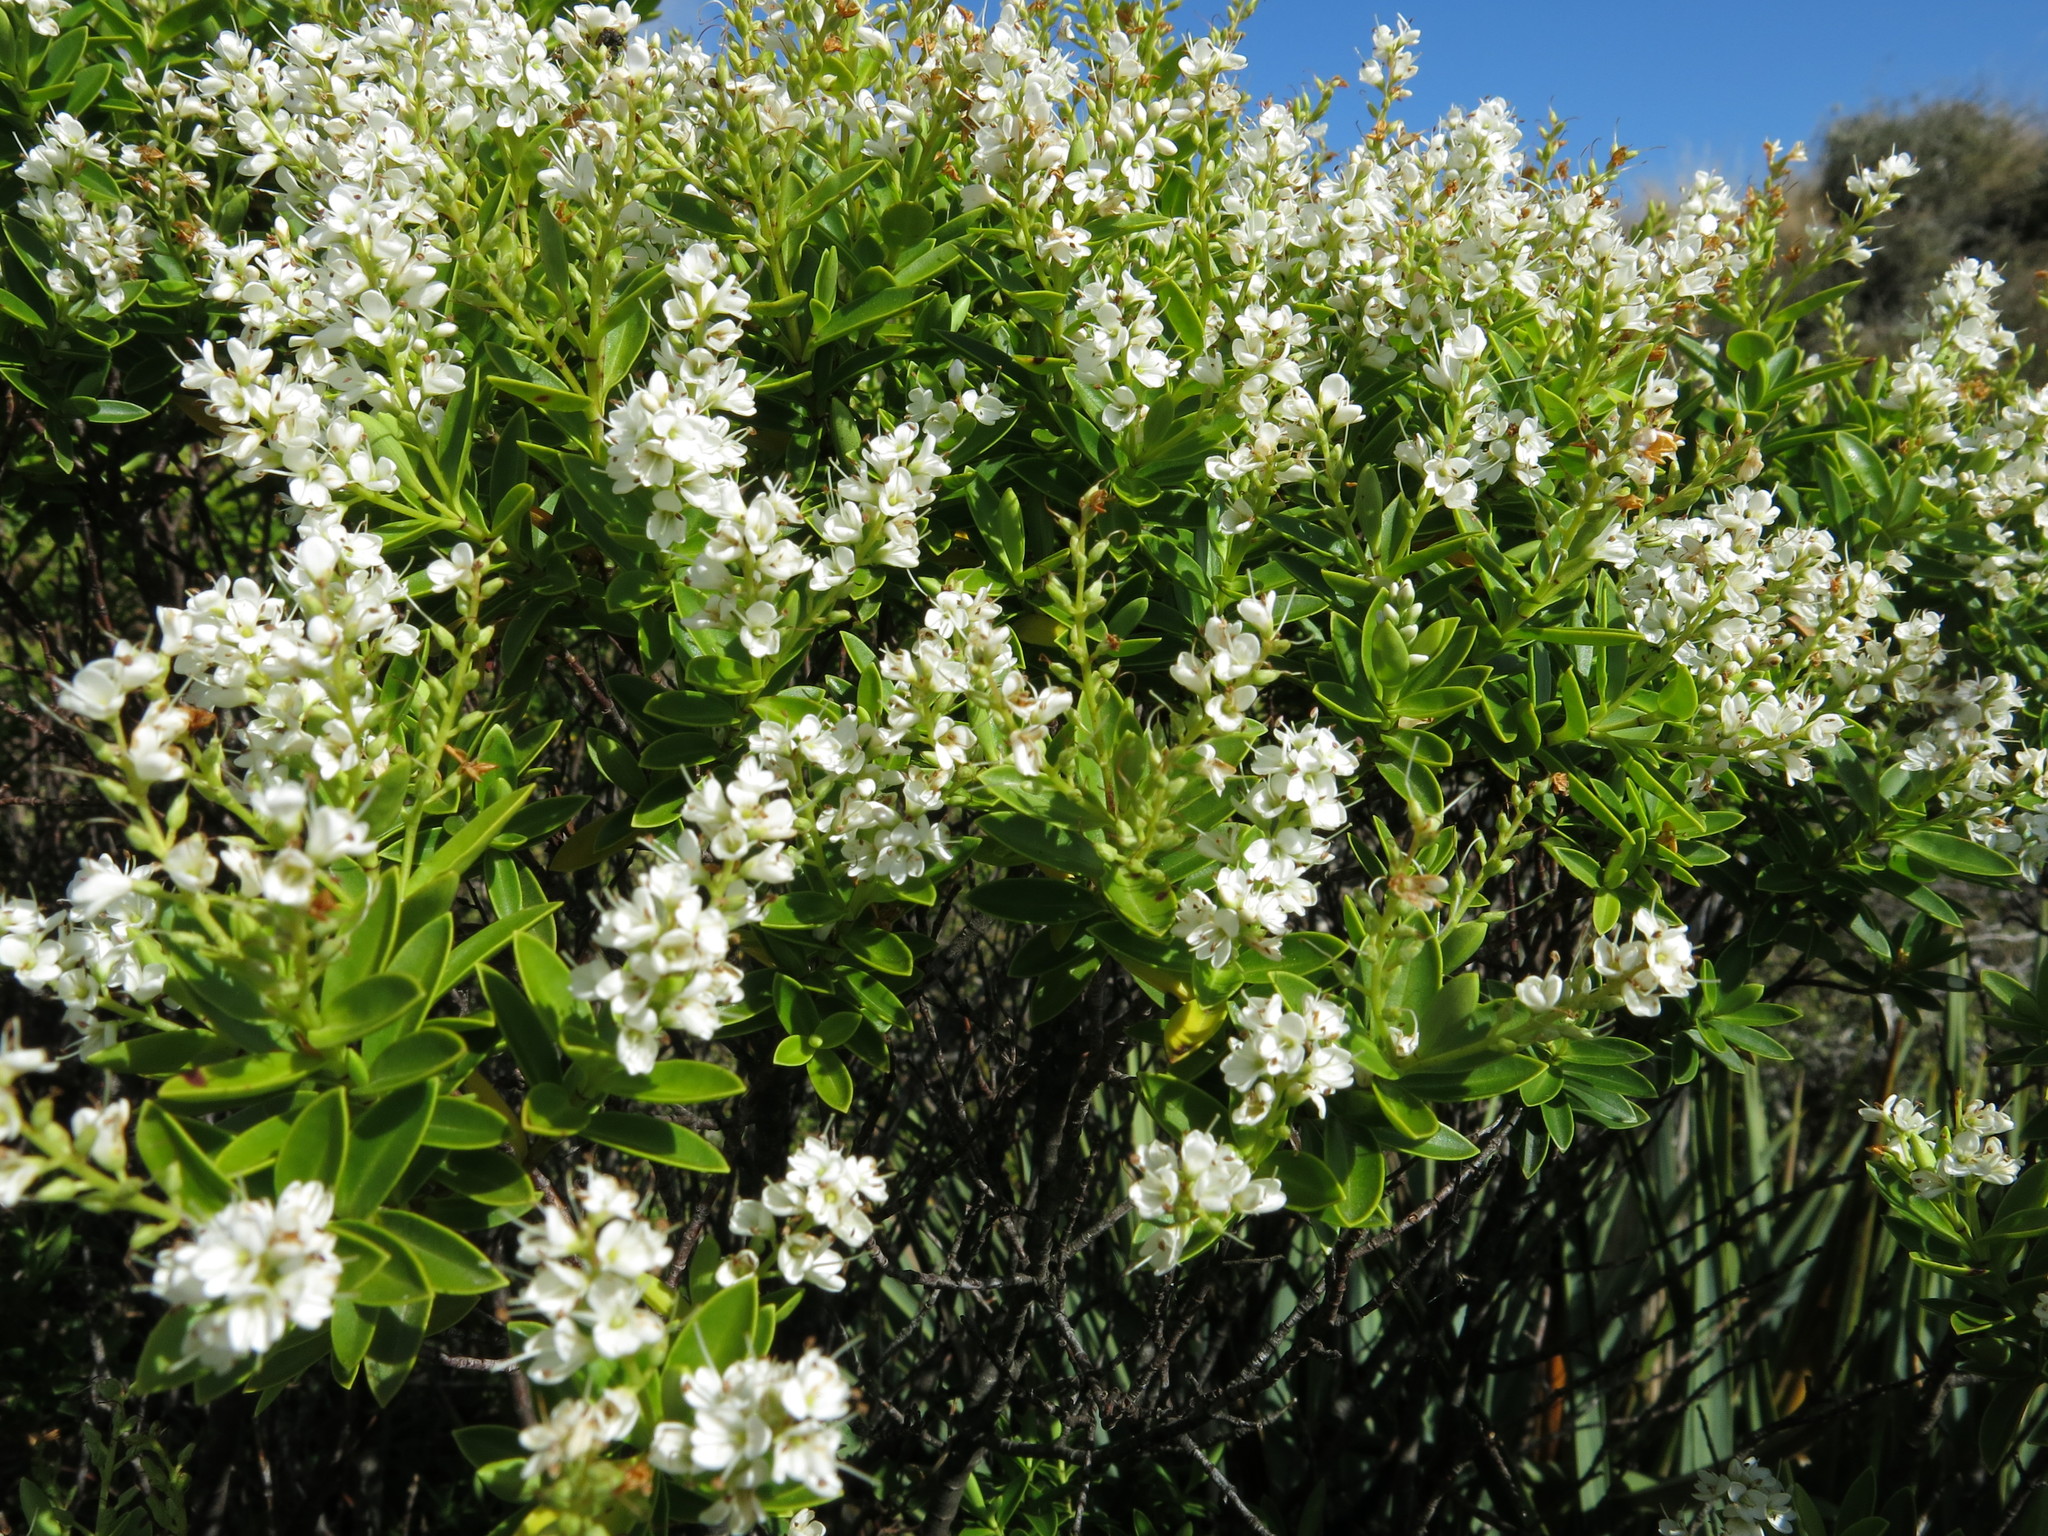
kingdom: Plantae
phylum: Tracheophyta
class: Magnoliopsida
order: Lamiales
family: Plantaginaceae
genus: Veronica
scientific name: Veronica rakaiensis
